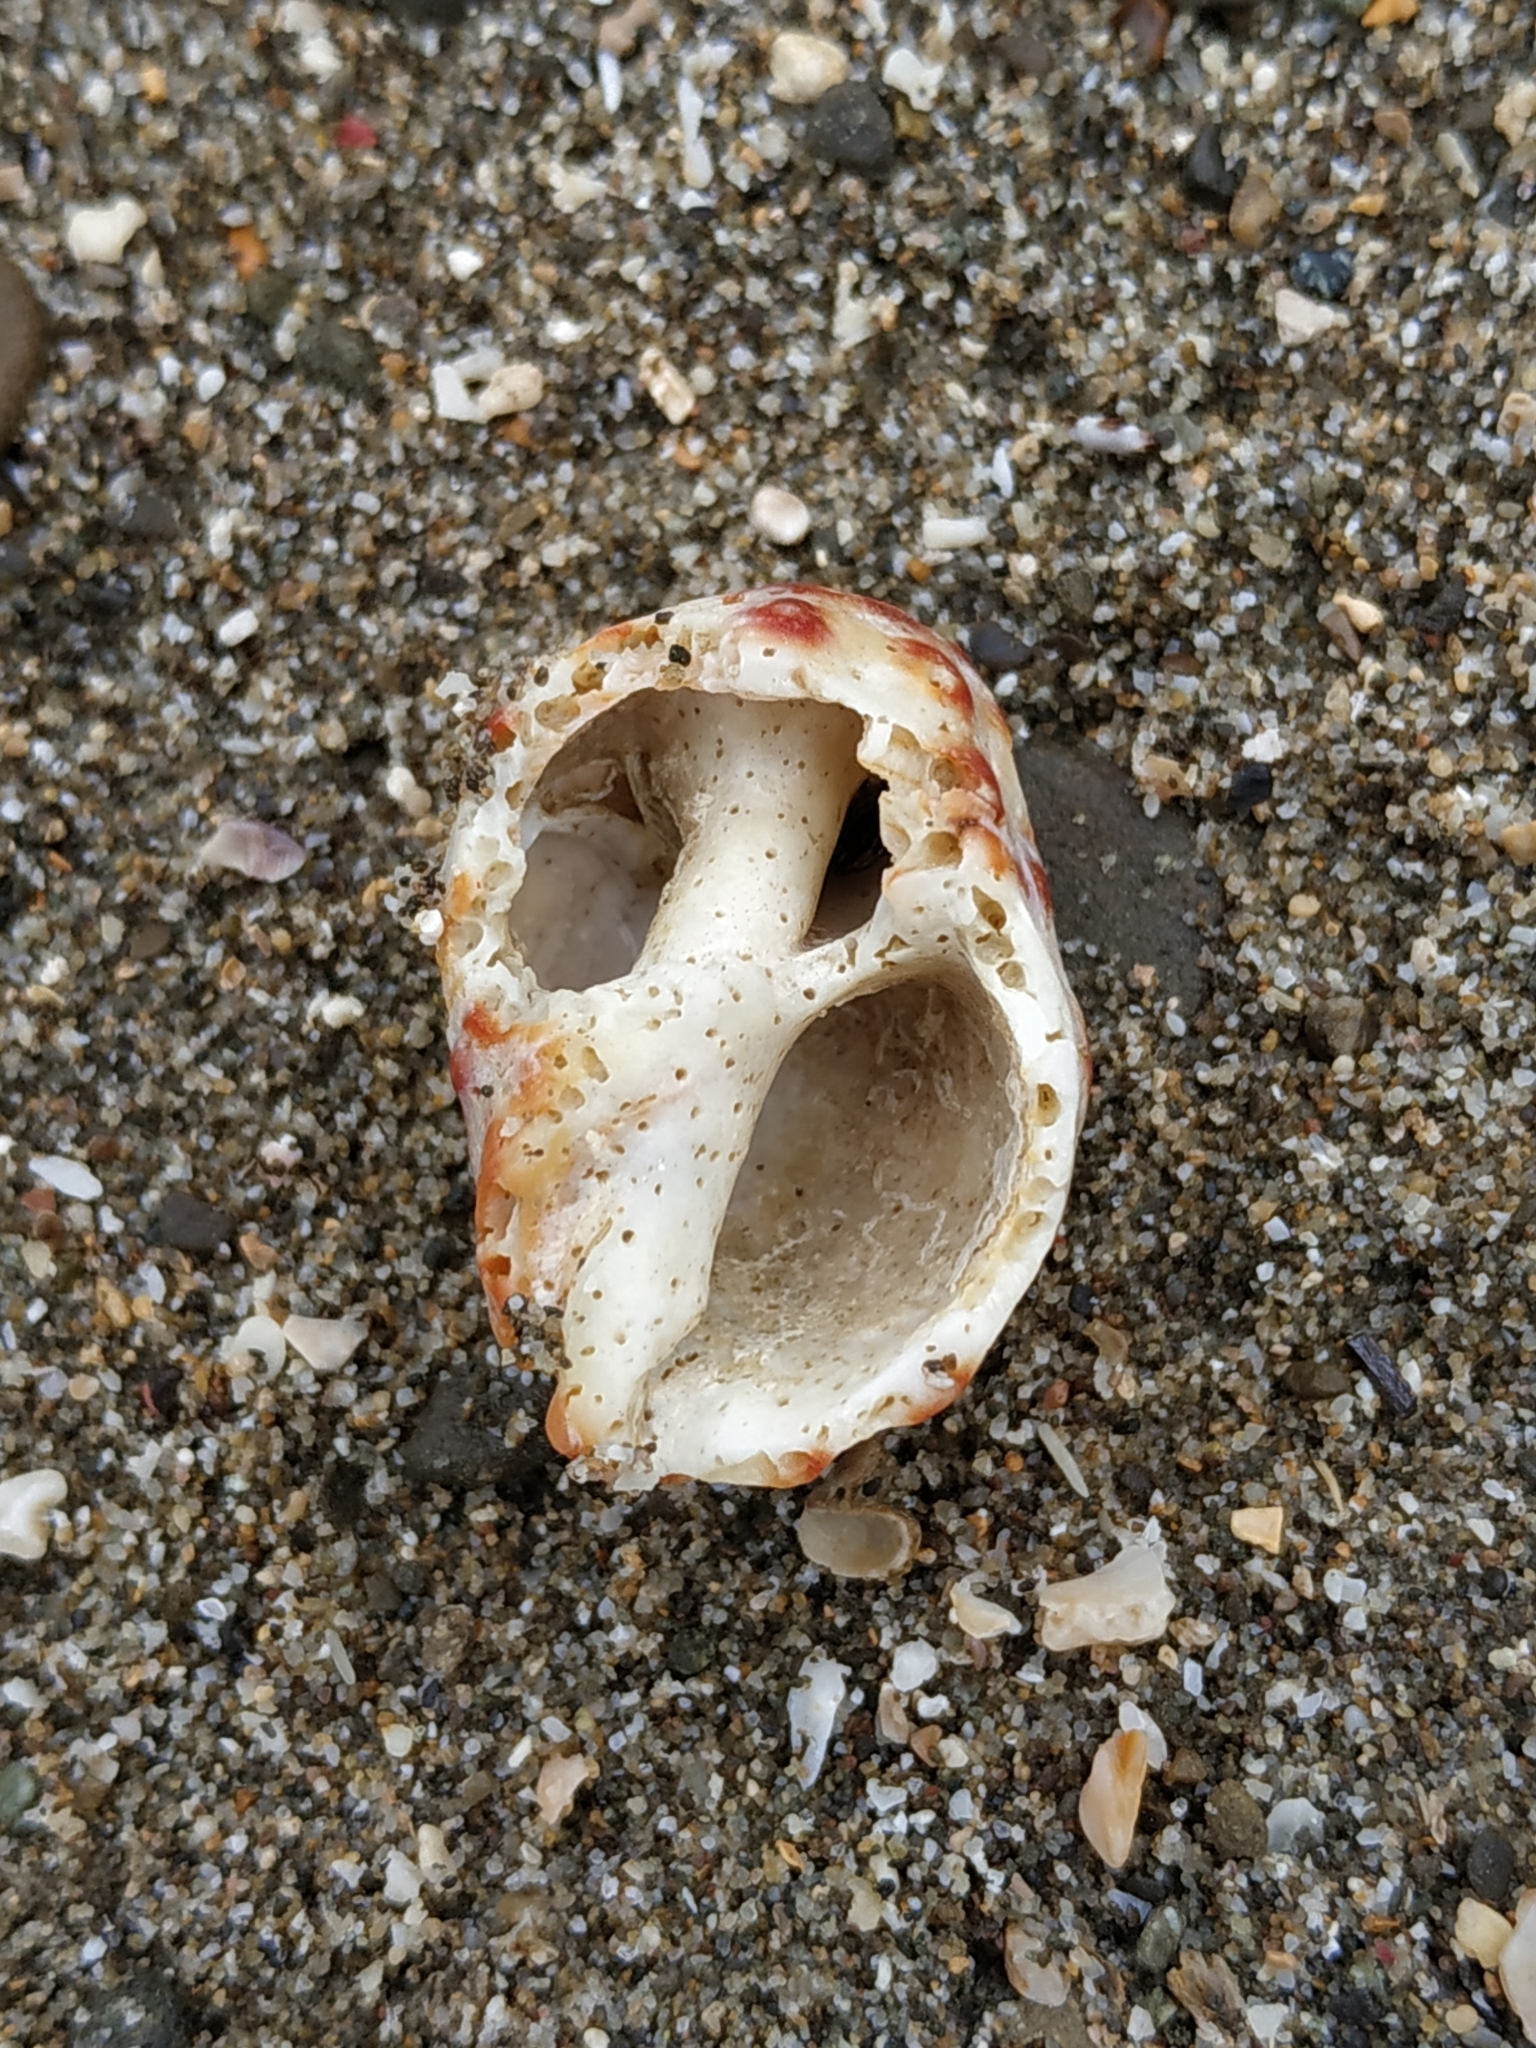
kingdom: Animalia
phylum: Mollusca
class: Gastropoda
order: Neogastropoda
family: Muricidae
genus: Mancinella
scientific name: Mancinella alouina
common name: Alou rock shell
